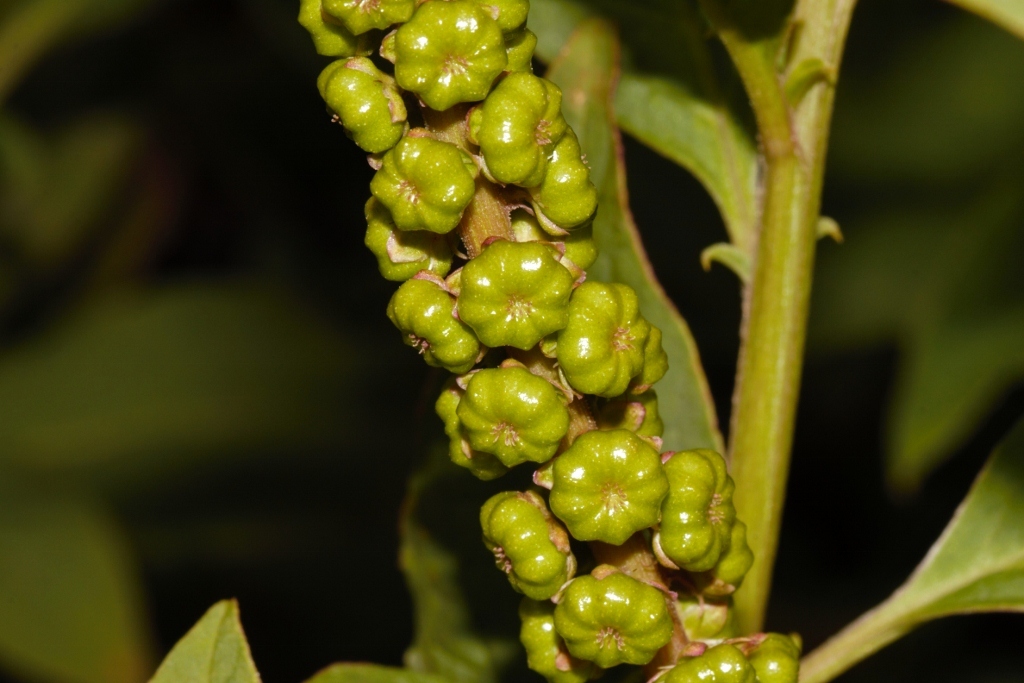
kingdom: Plantae
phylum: Tracheophyta
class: Magnoliopsida
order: Caryophyllales
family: Phytolaccaceae
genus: Phytolacca
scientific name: Phytolacca icosandra
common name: Button pokeweed
